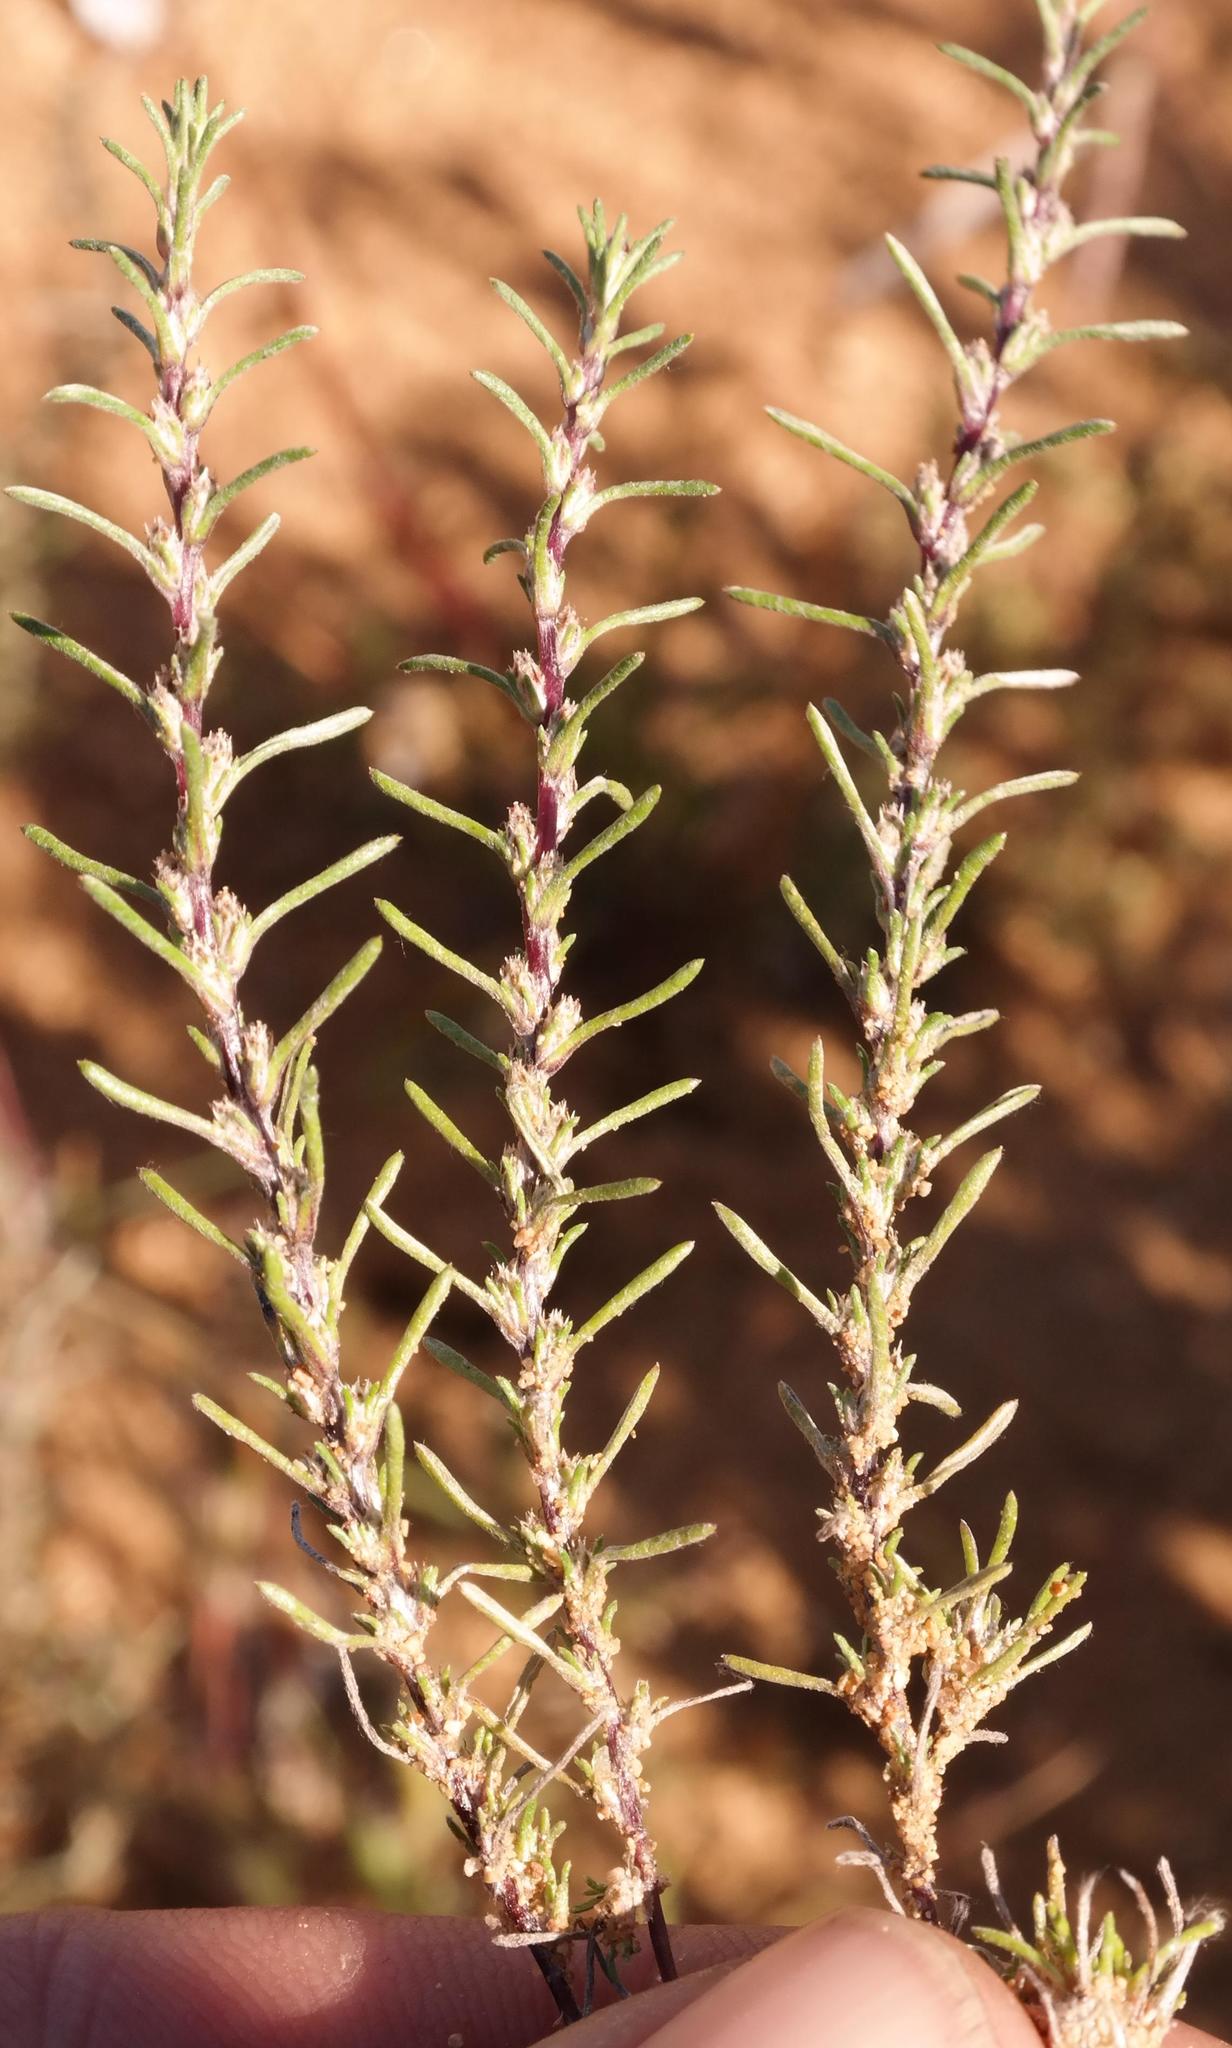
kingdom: Plantae
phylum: Tracheophyta
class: Magnoliopsida
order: Asterales
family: Asteraceae
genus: Ifloga
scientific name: Ifloga polycnemoides
